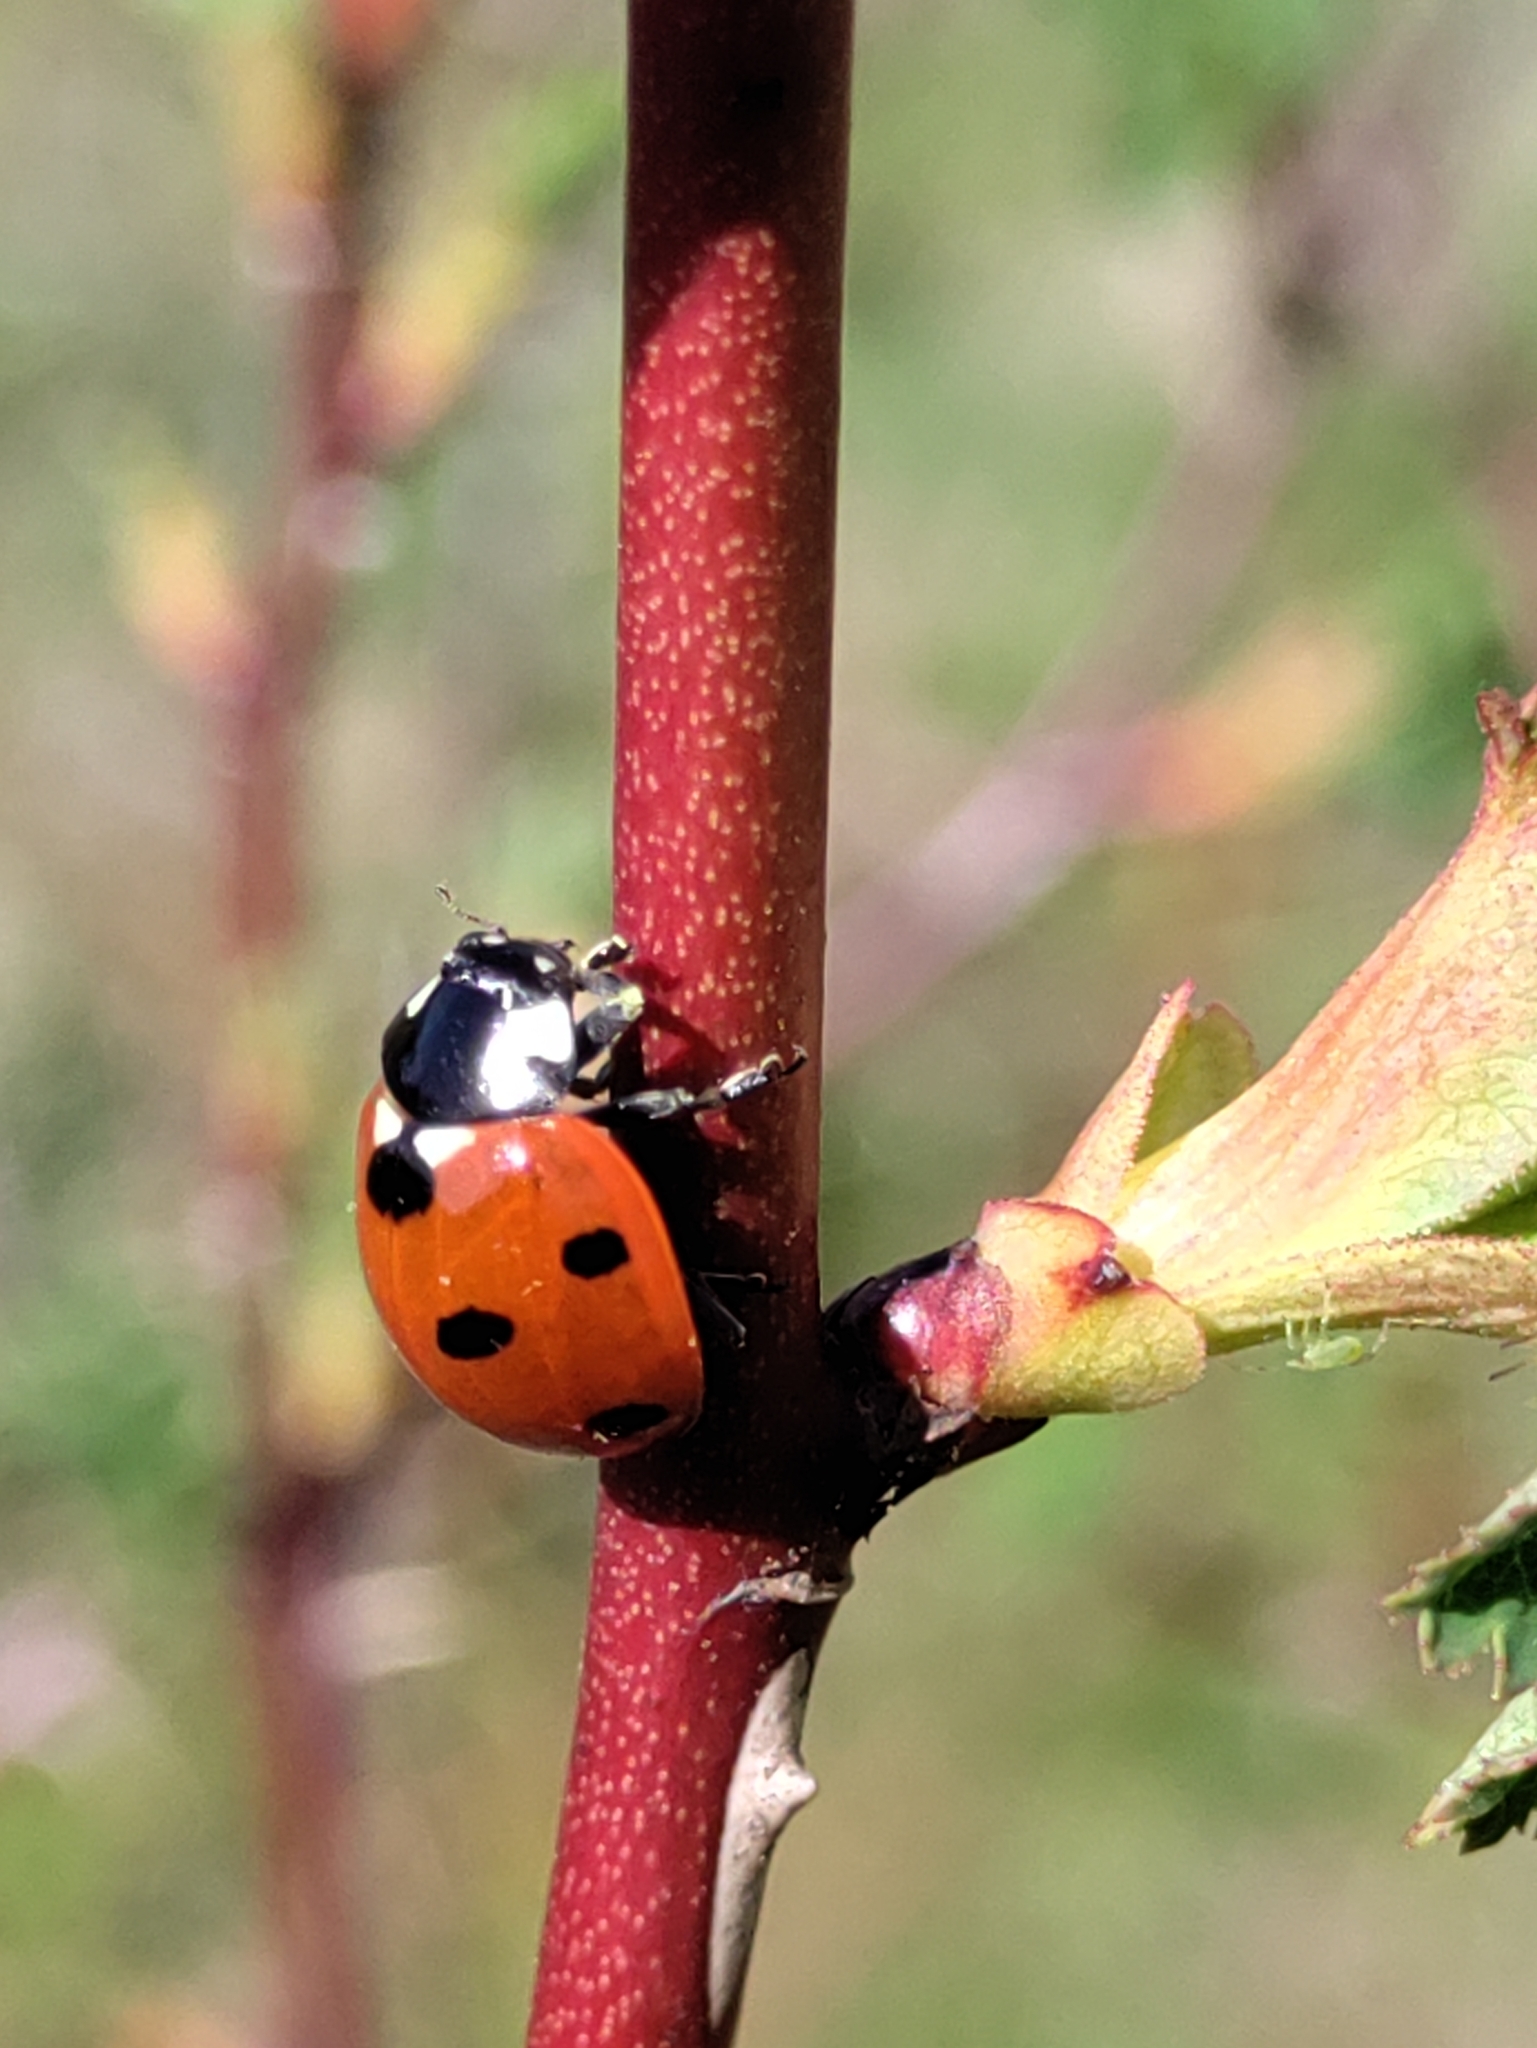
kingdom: Animalia
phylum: Arthropoda
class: Insecta
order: Coleoptera
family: Coccinellidae
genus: Coccinella
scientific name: Coccinella septempunctata
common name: Sevenspotted lady beetle
